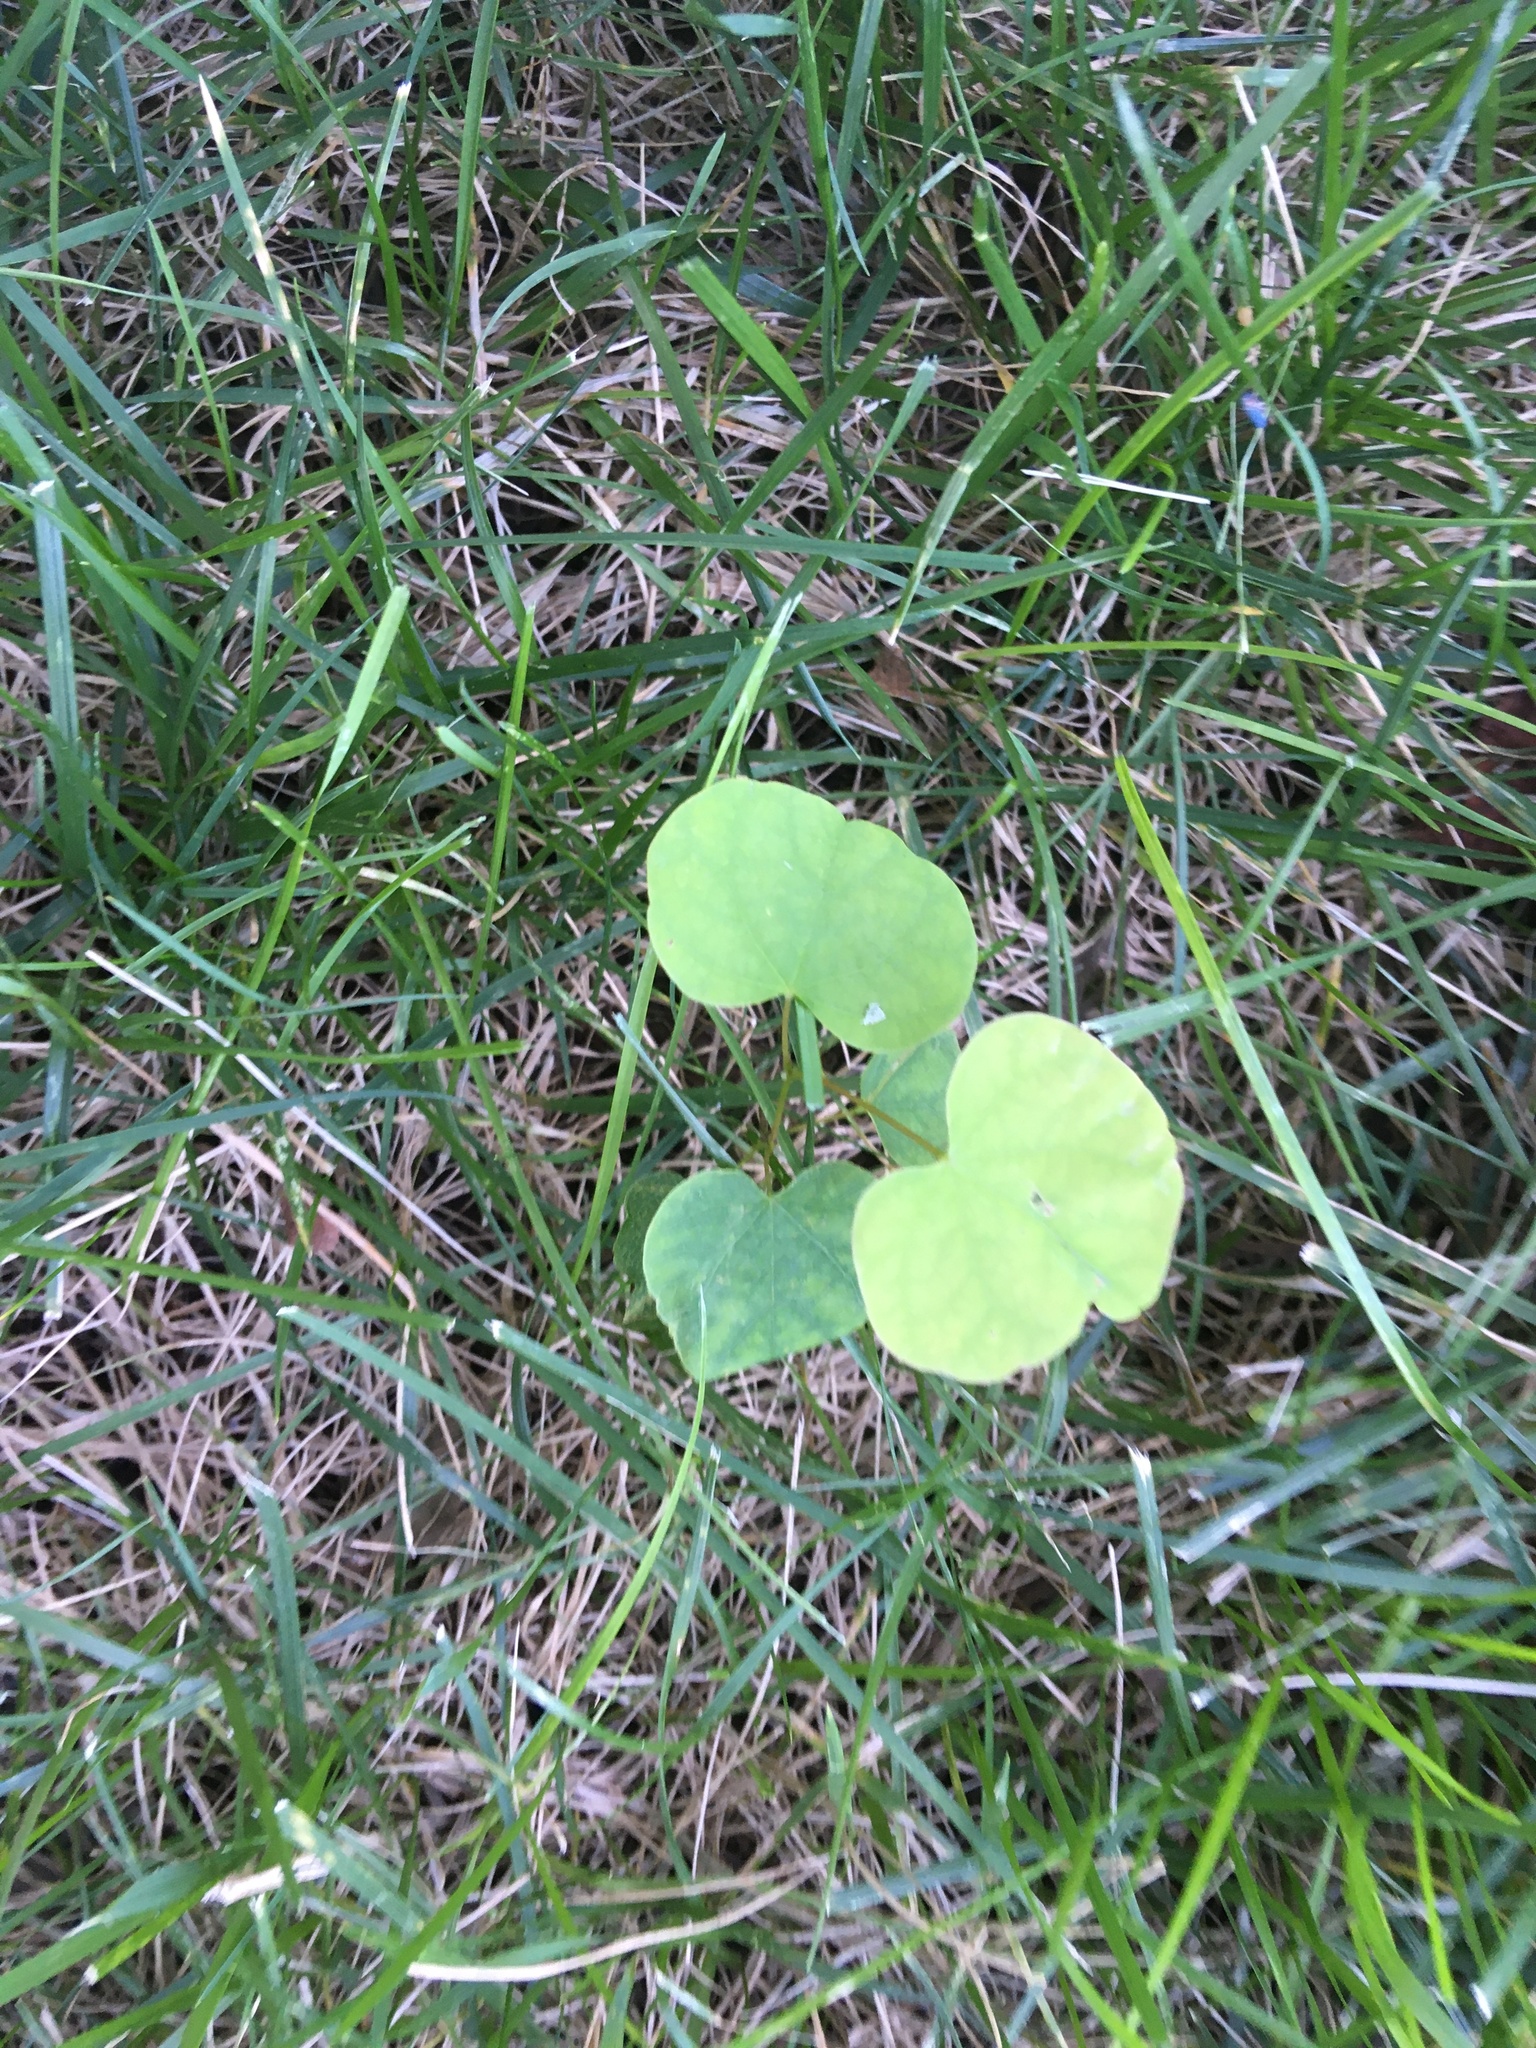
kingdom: Plantae
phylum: Tracheophyta
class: Magnoliopsida
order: Fabales
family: Fabaceae
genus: Cercis
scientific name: Cercis canadensis
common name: Eastern redbud
